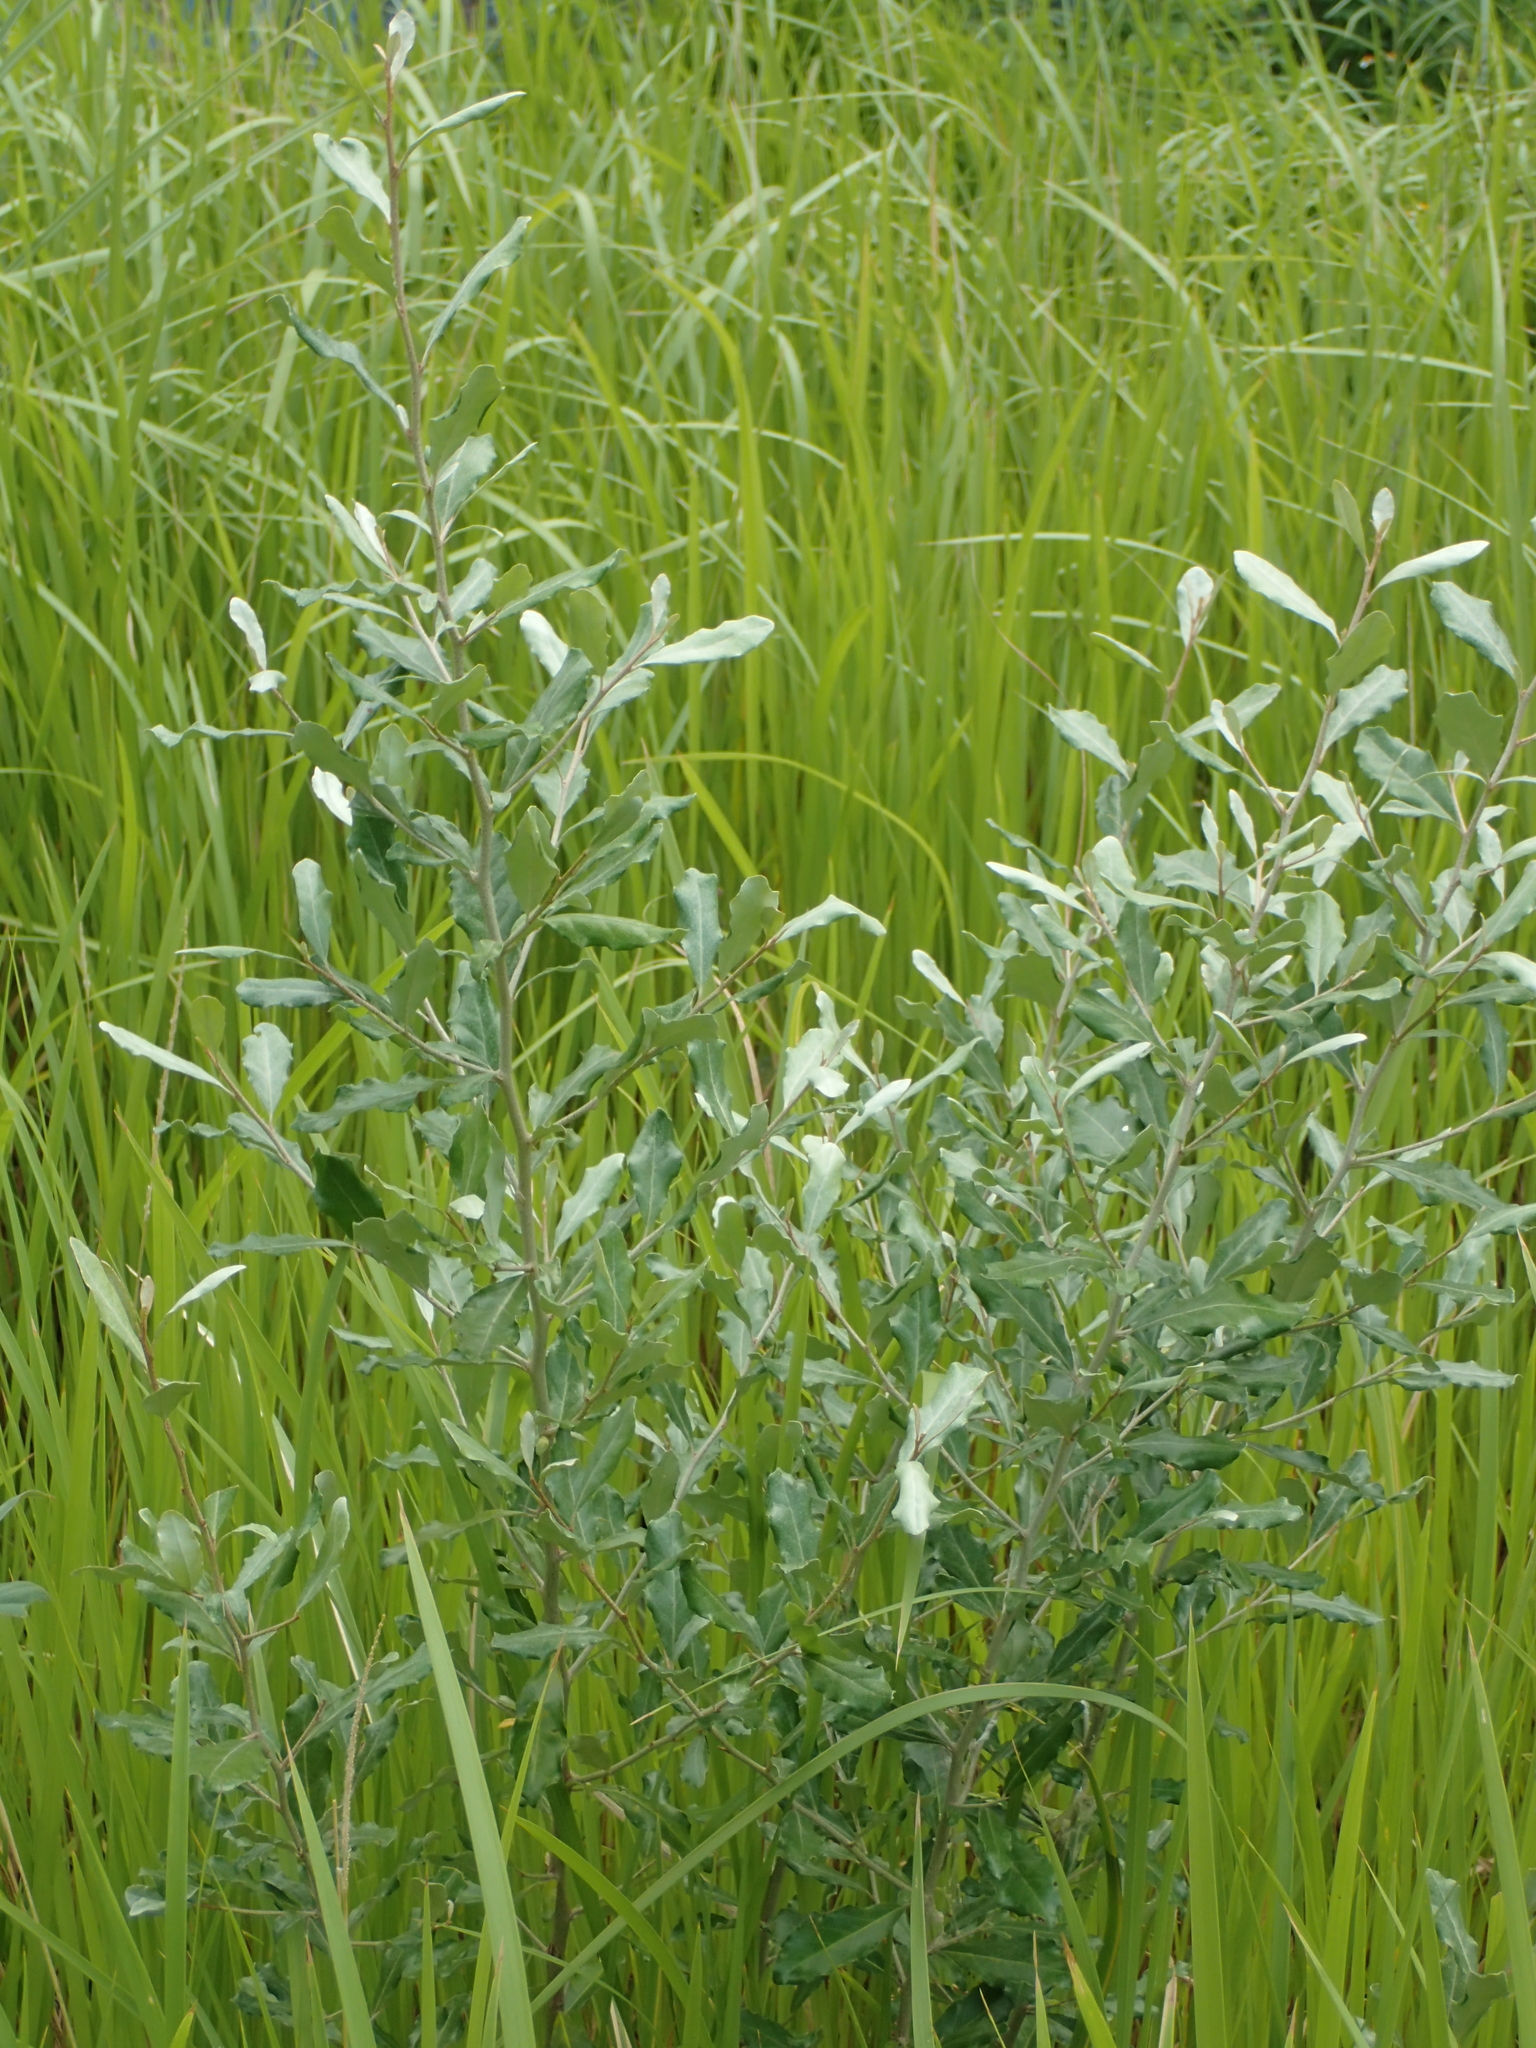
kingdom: Plantae
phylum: Tracheophyta
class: Magnoliopsida
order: Rosales
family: Elaeagnaceae
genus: Elaeagnus
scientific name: Elaeagnus oldhamii
